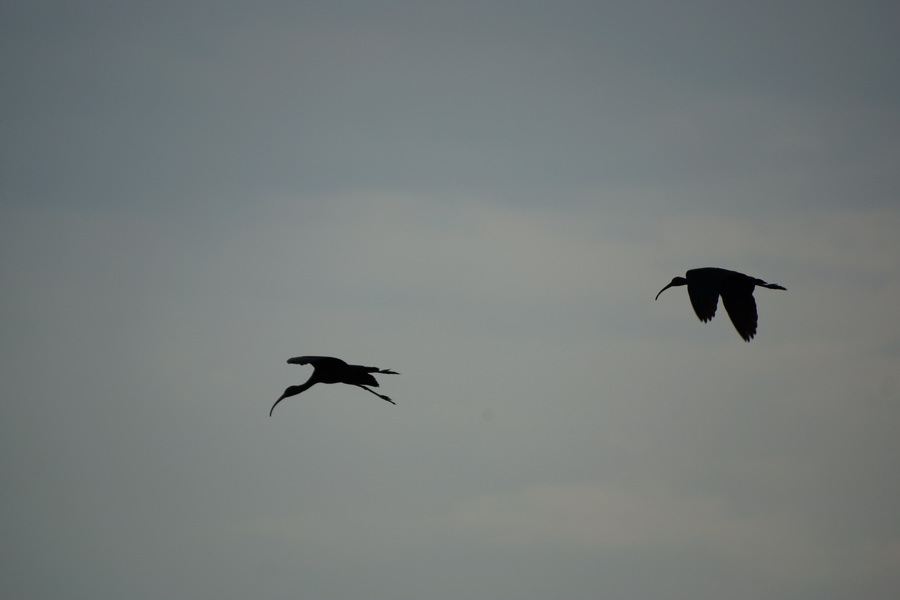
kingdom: Animalia
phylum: Chordata
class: Aves
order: Pelecaniformes
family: Threskiornithidae
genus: Plegadis
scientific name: Plegadis falcinellus
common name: Glossy ibis
